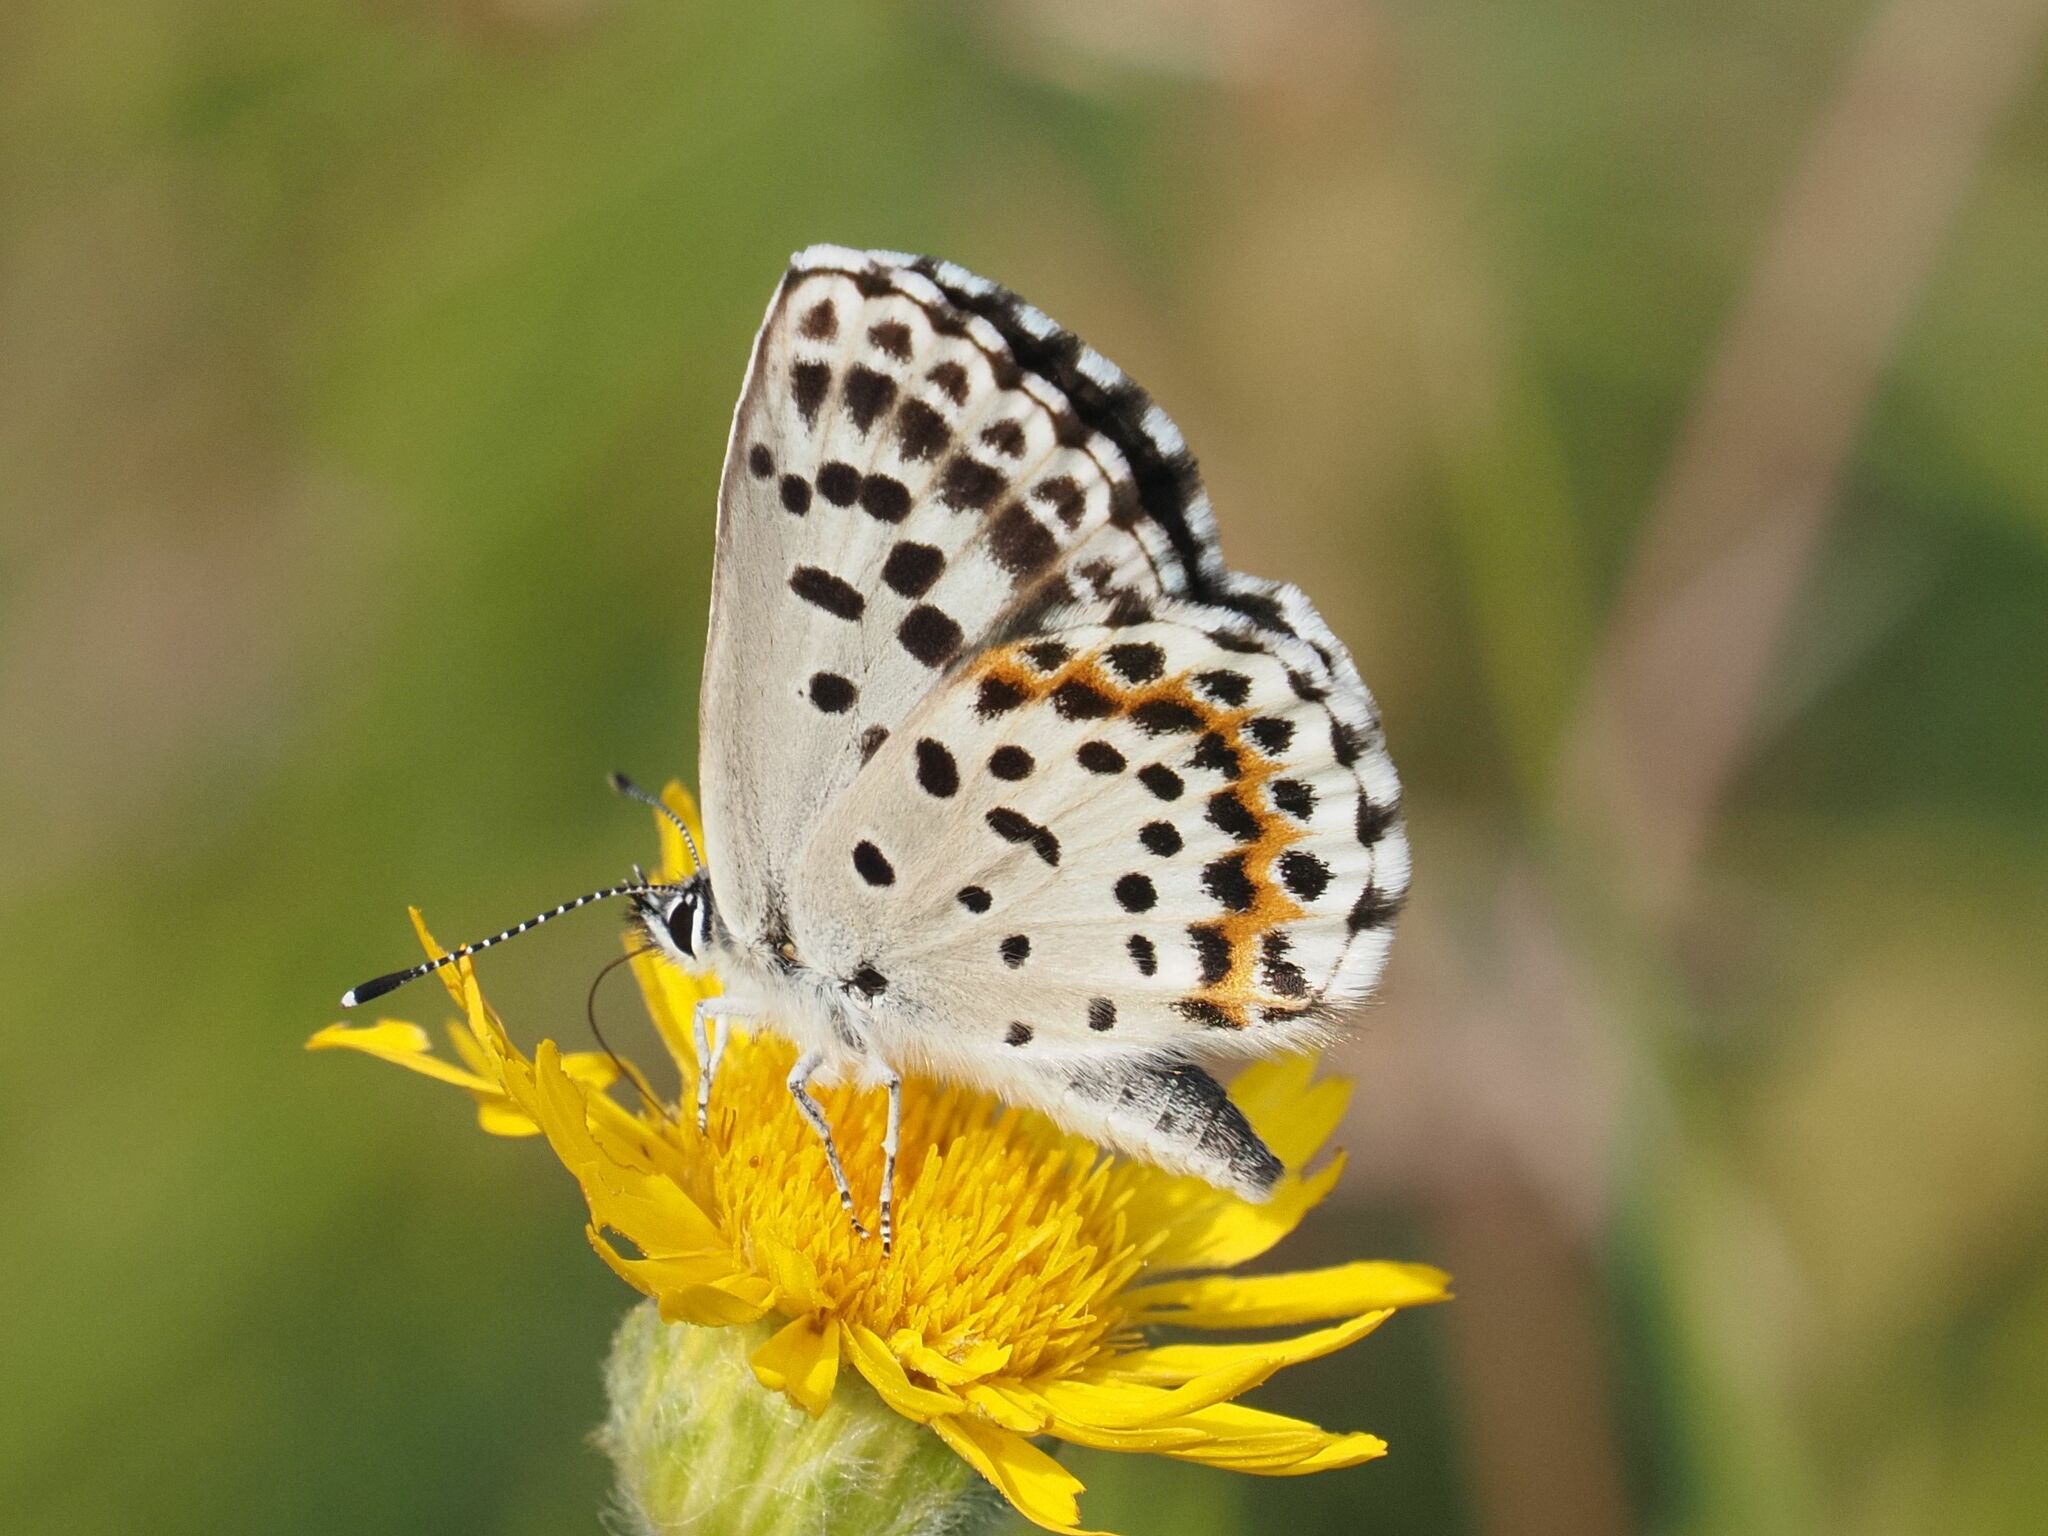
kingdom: Animalia
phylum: Arthropoda
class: Insecta
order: Lepidoptera
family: Lycaenidae
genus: Scolitantides
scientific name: Scolitantides orion
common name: Chequered blue
